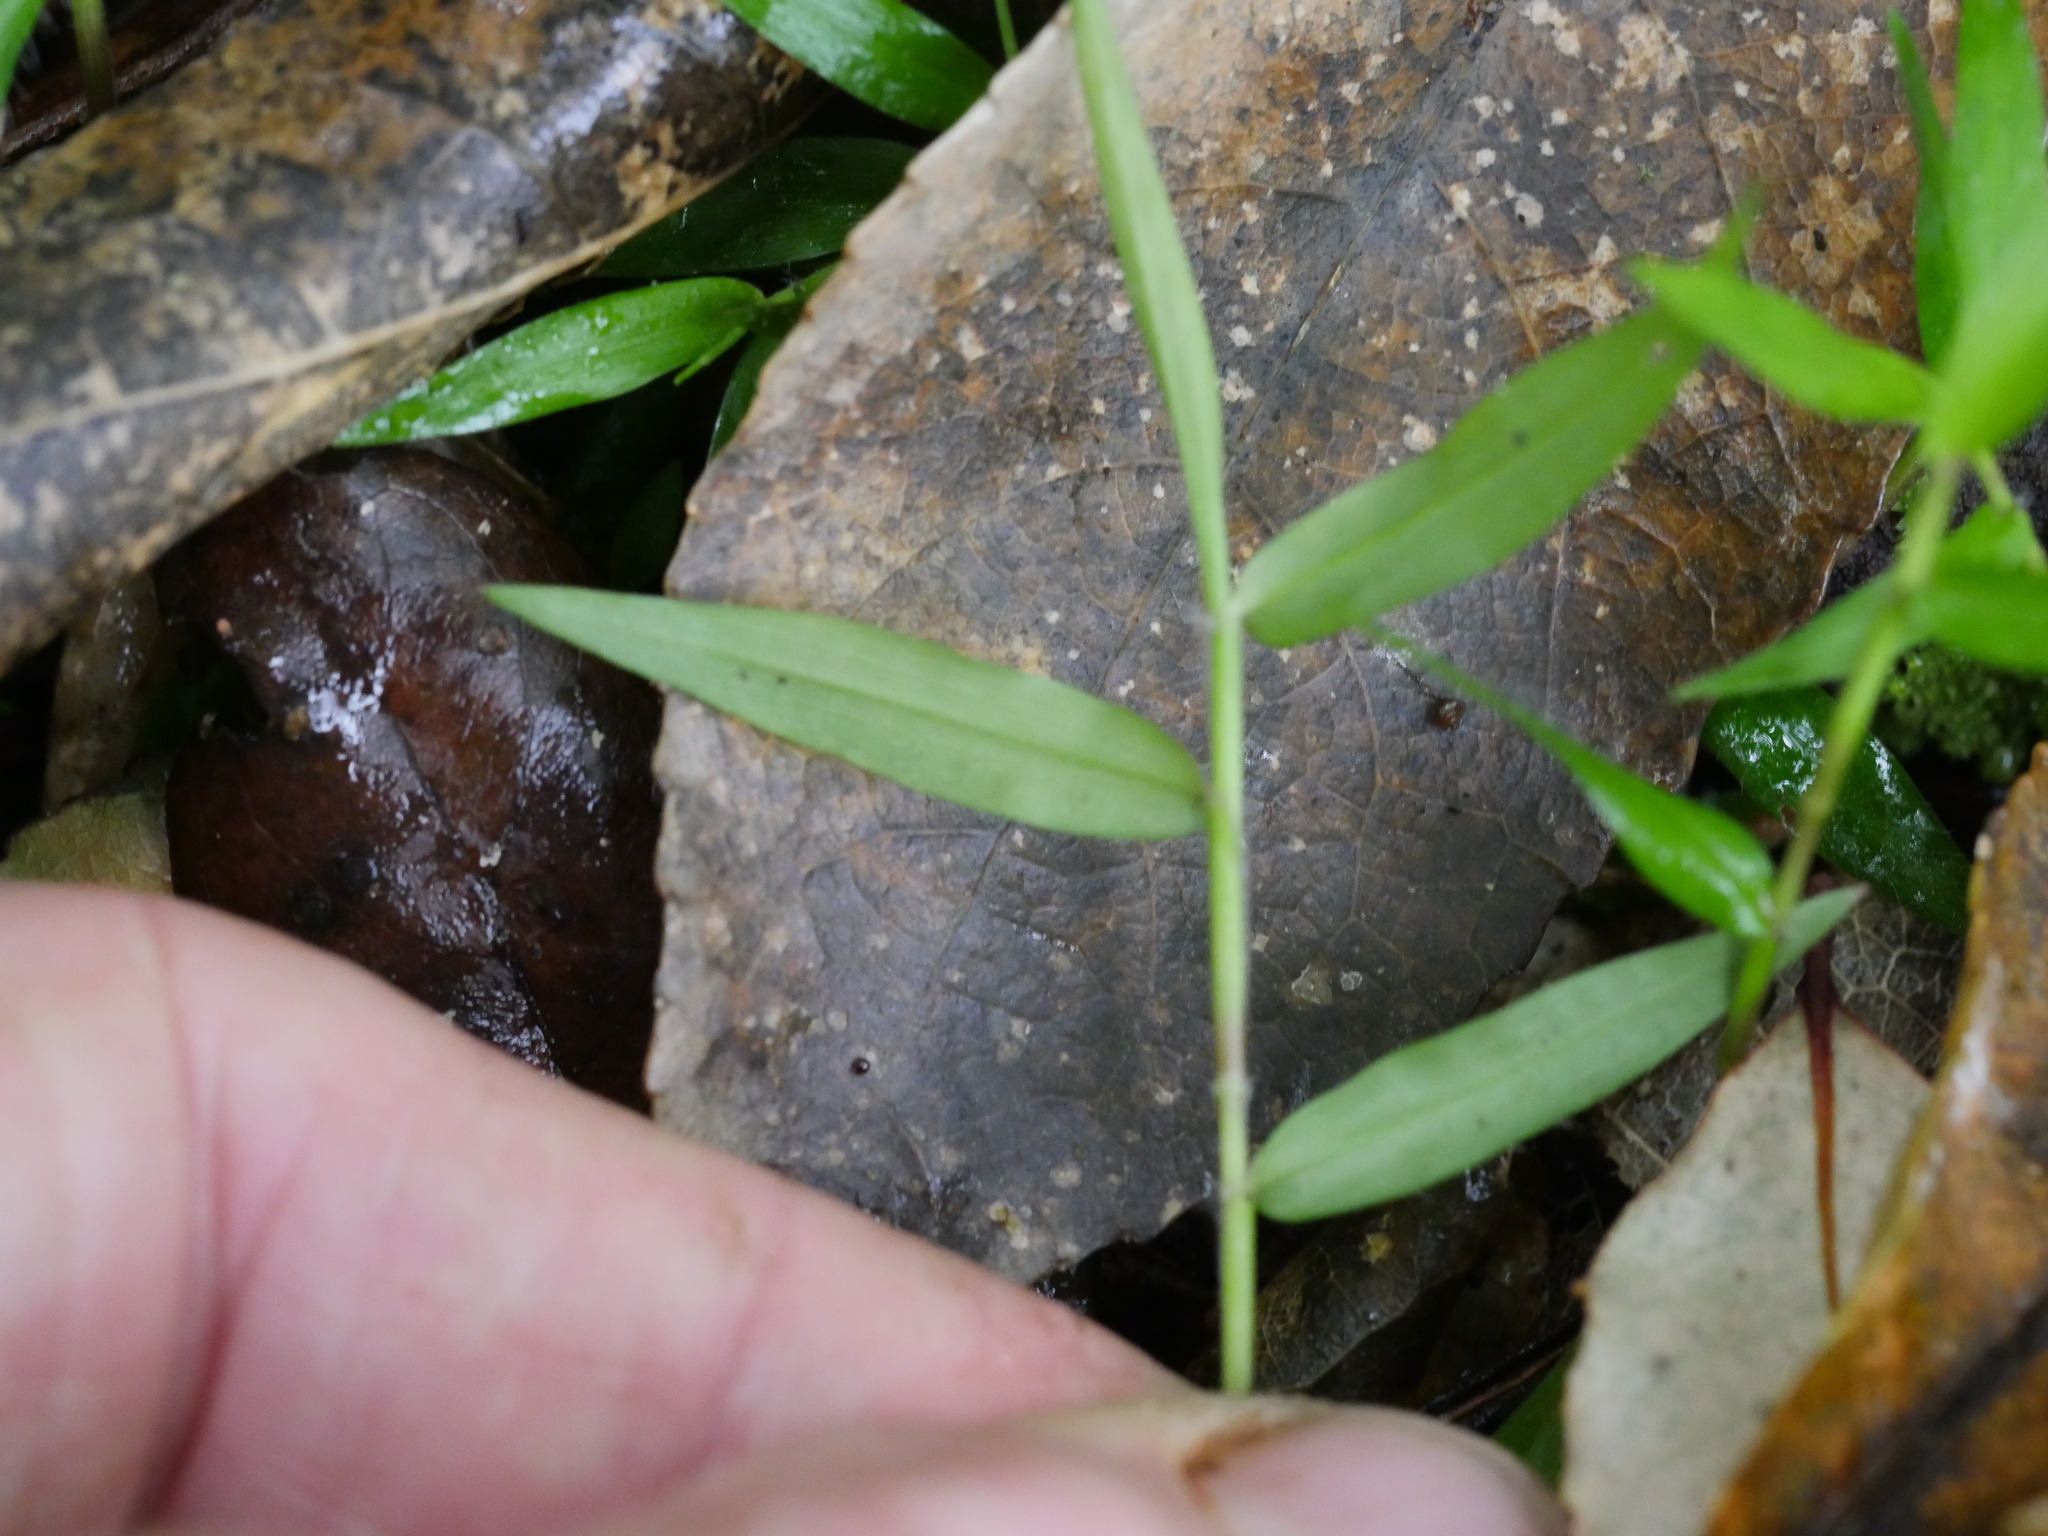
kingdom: Plantae
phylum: Tracheophyta
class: Liliopsida
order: Poales
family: Poaceae
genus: Oplismenus
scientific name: Oplismenus hirtellus
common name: Basketgrass
